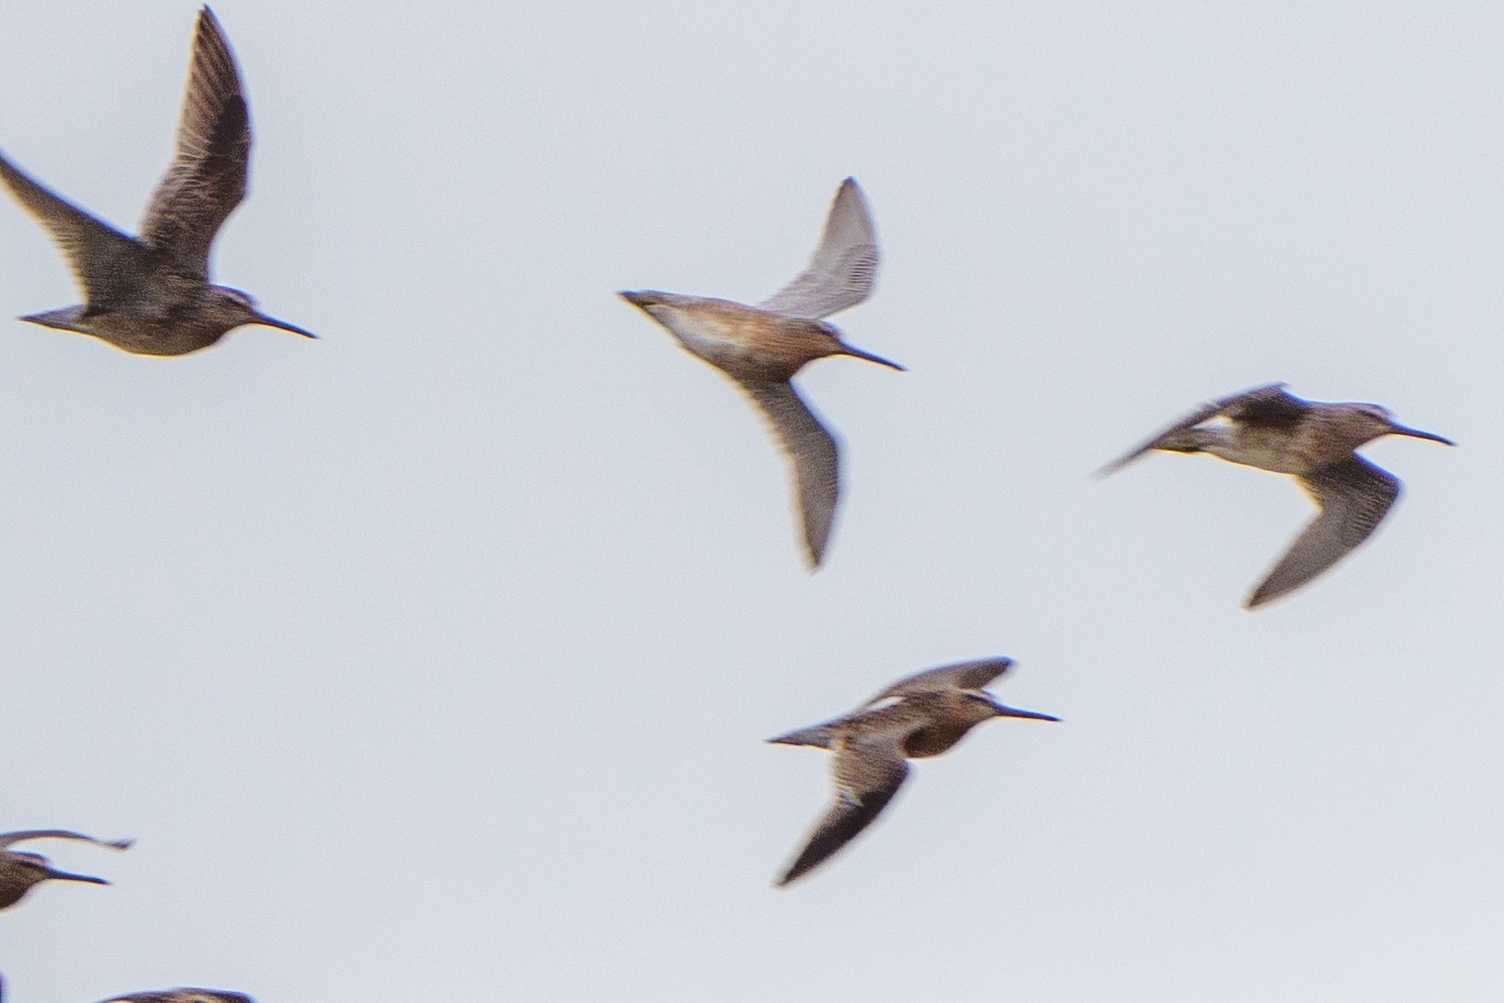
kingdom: Animalia
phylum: Chordata
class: Aves
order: Charadriiformes
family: Scolopacidae
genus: Limnodromus
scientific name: Limnodromus griseus
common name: Short-billed dowitcher
